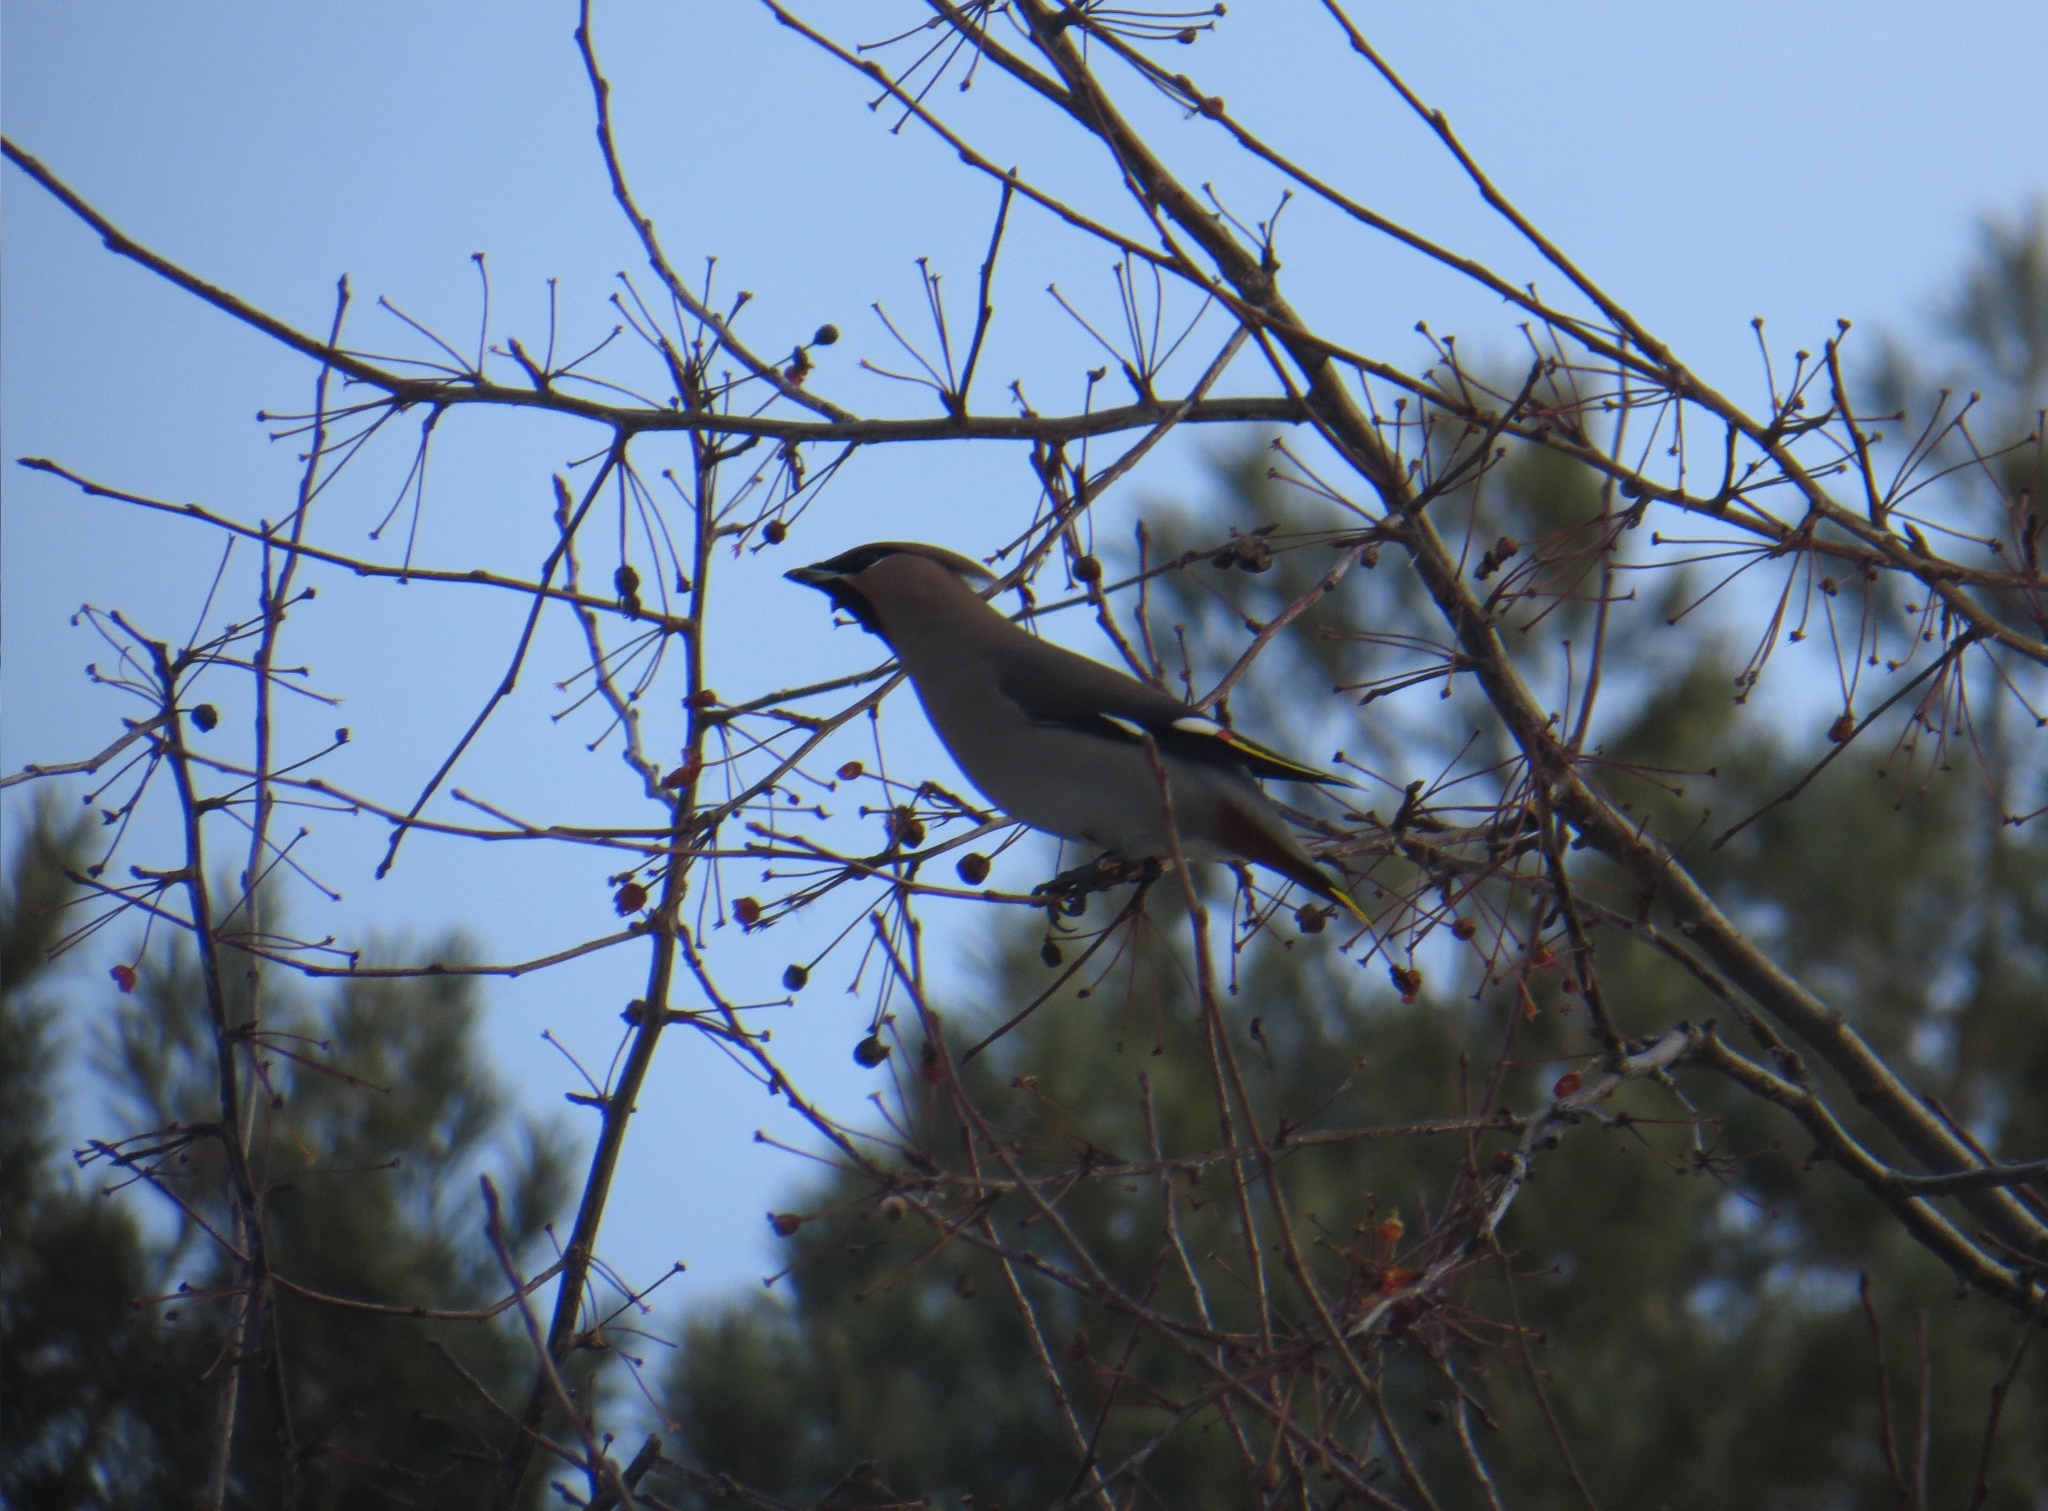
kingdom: Animalia
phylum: Chordata
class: Aves
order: Passeriformes
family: Bombycillidae
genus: Bombycilla
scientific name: Bombycilla garrulus
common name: Bohemian waxwing
